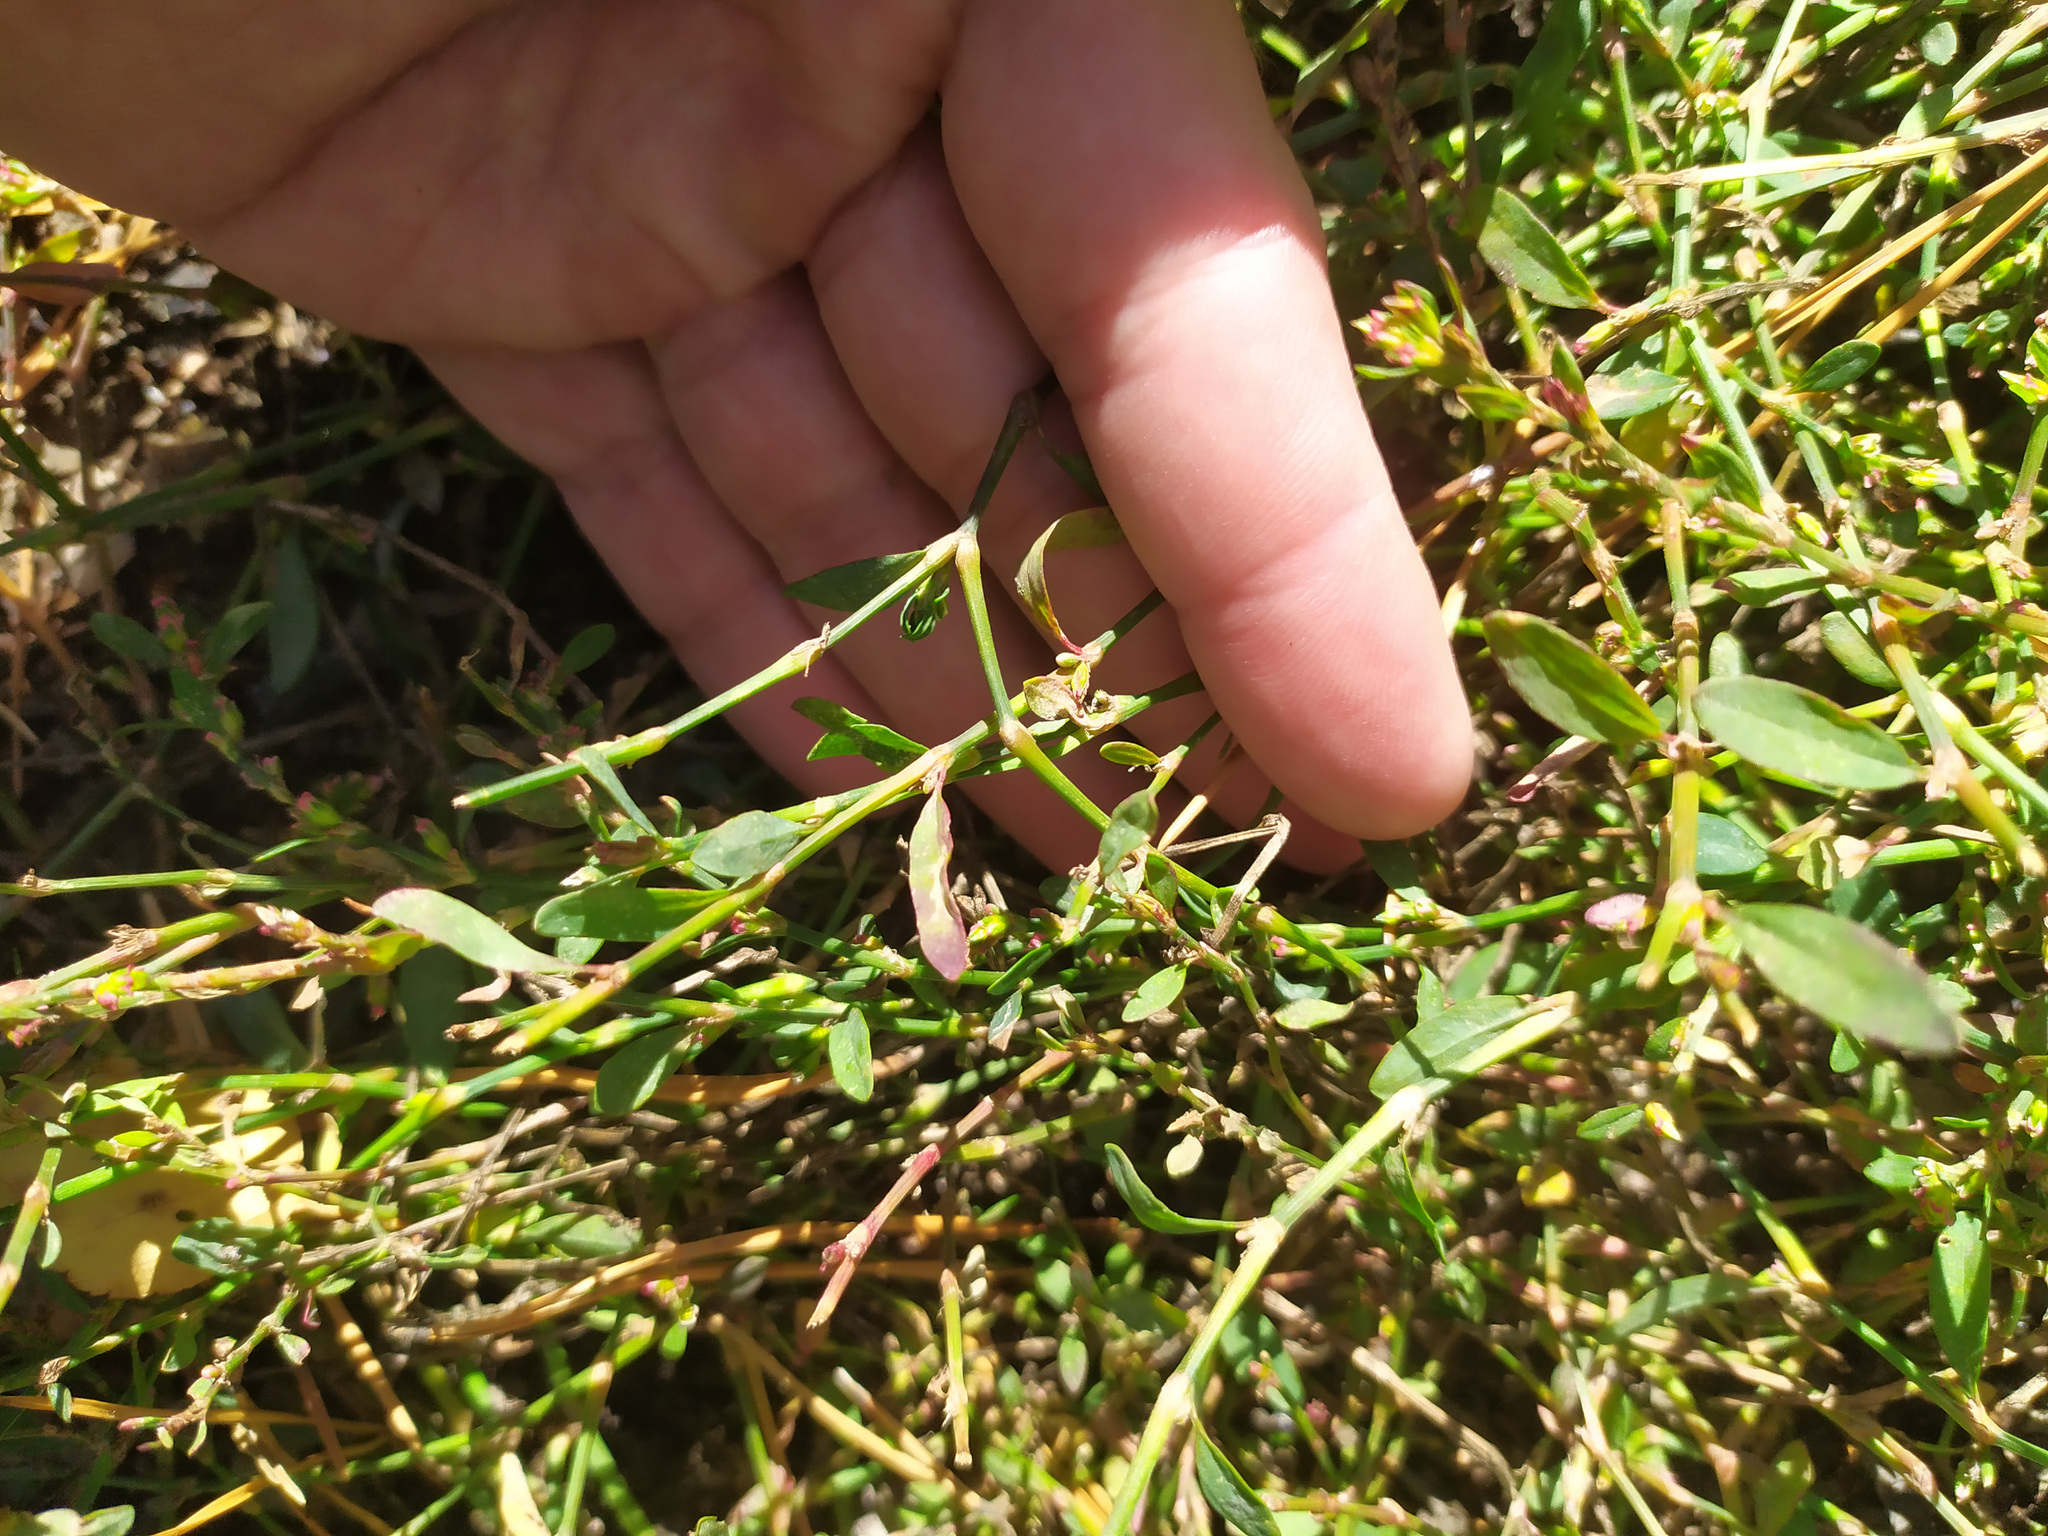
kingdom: Plantae
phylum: Tracheophyta
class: Magnoliopsida
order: Caryophyllales
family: Polygonaceae
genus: Polygonum
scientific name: Polygonum
